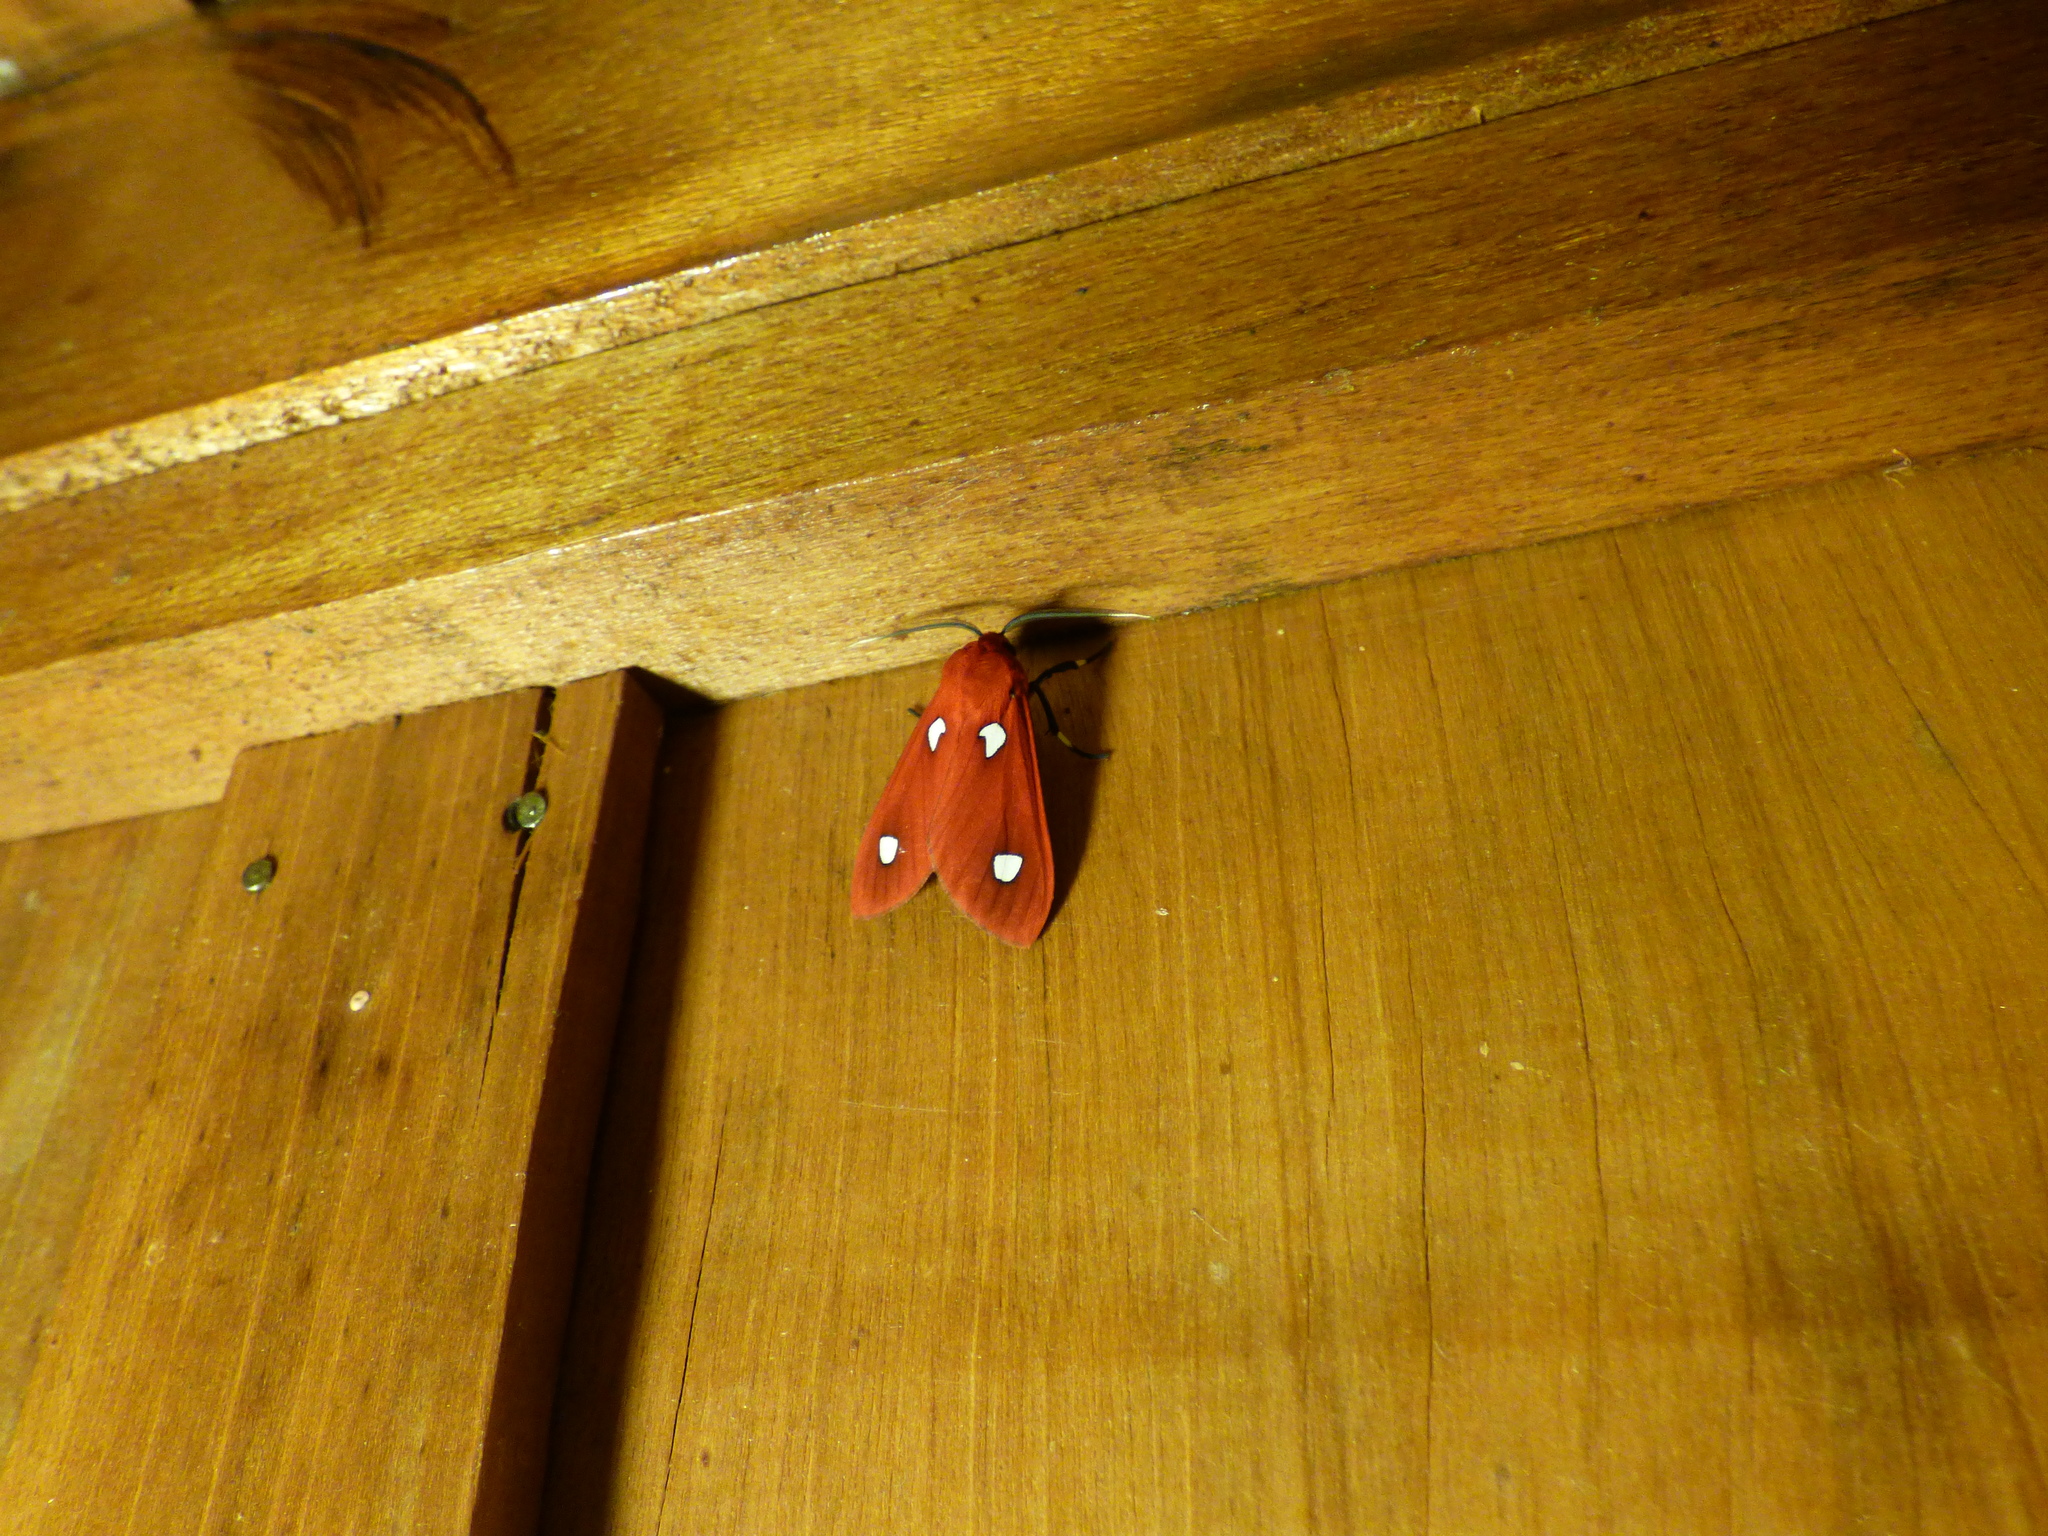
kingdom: Animalia
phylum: Arthropoda
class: Insecta
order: Lepidoptera
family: Erebidae
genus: Hyperthaema
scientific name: Hyperthaema perflammans
